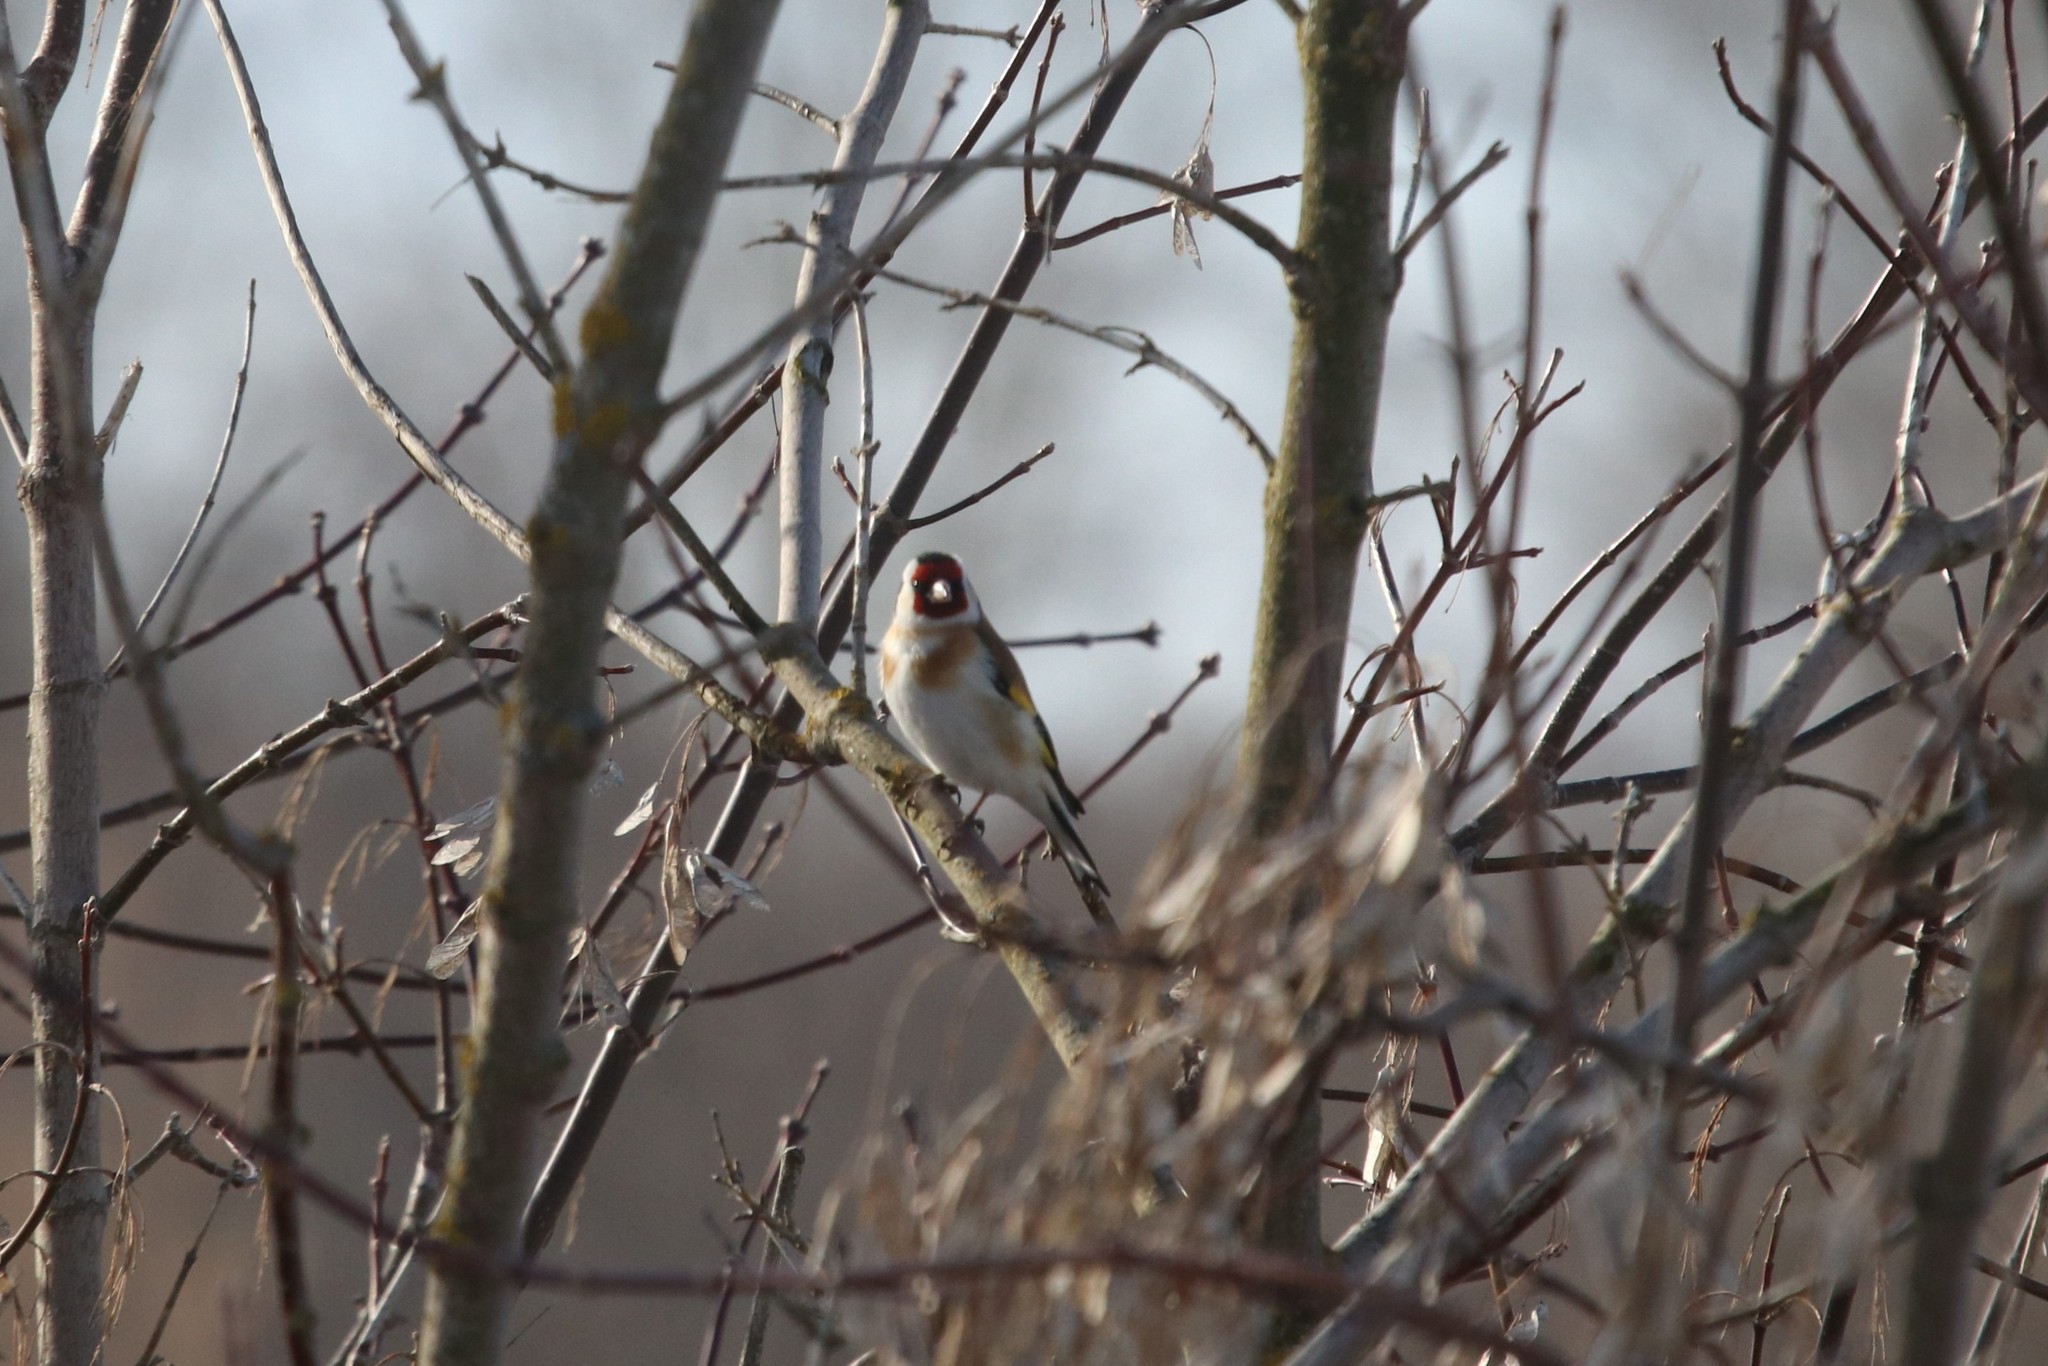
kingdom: Animalia
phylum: Chordata
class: Aves
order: Passeriformes
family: Fringillidae
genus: Carduelis
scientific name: Carduelis carduelis
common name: European goldfinch
